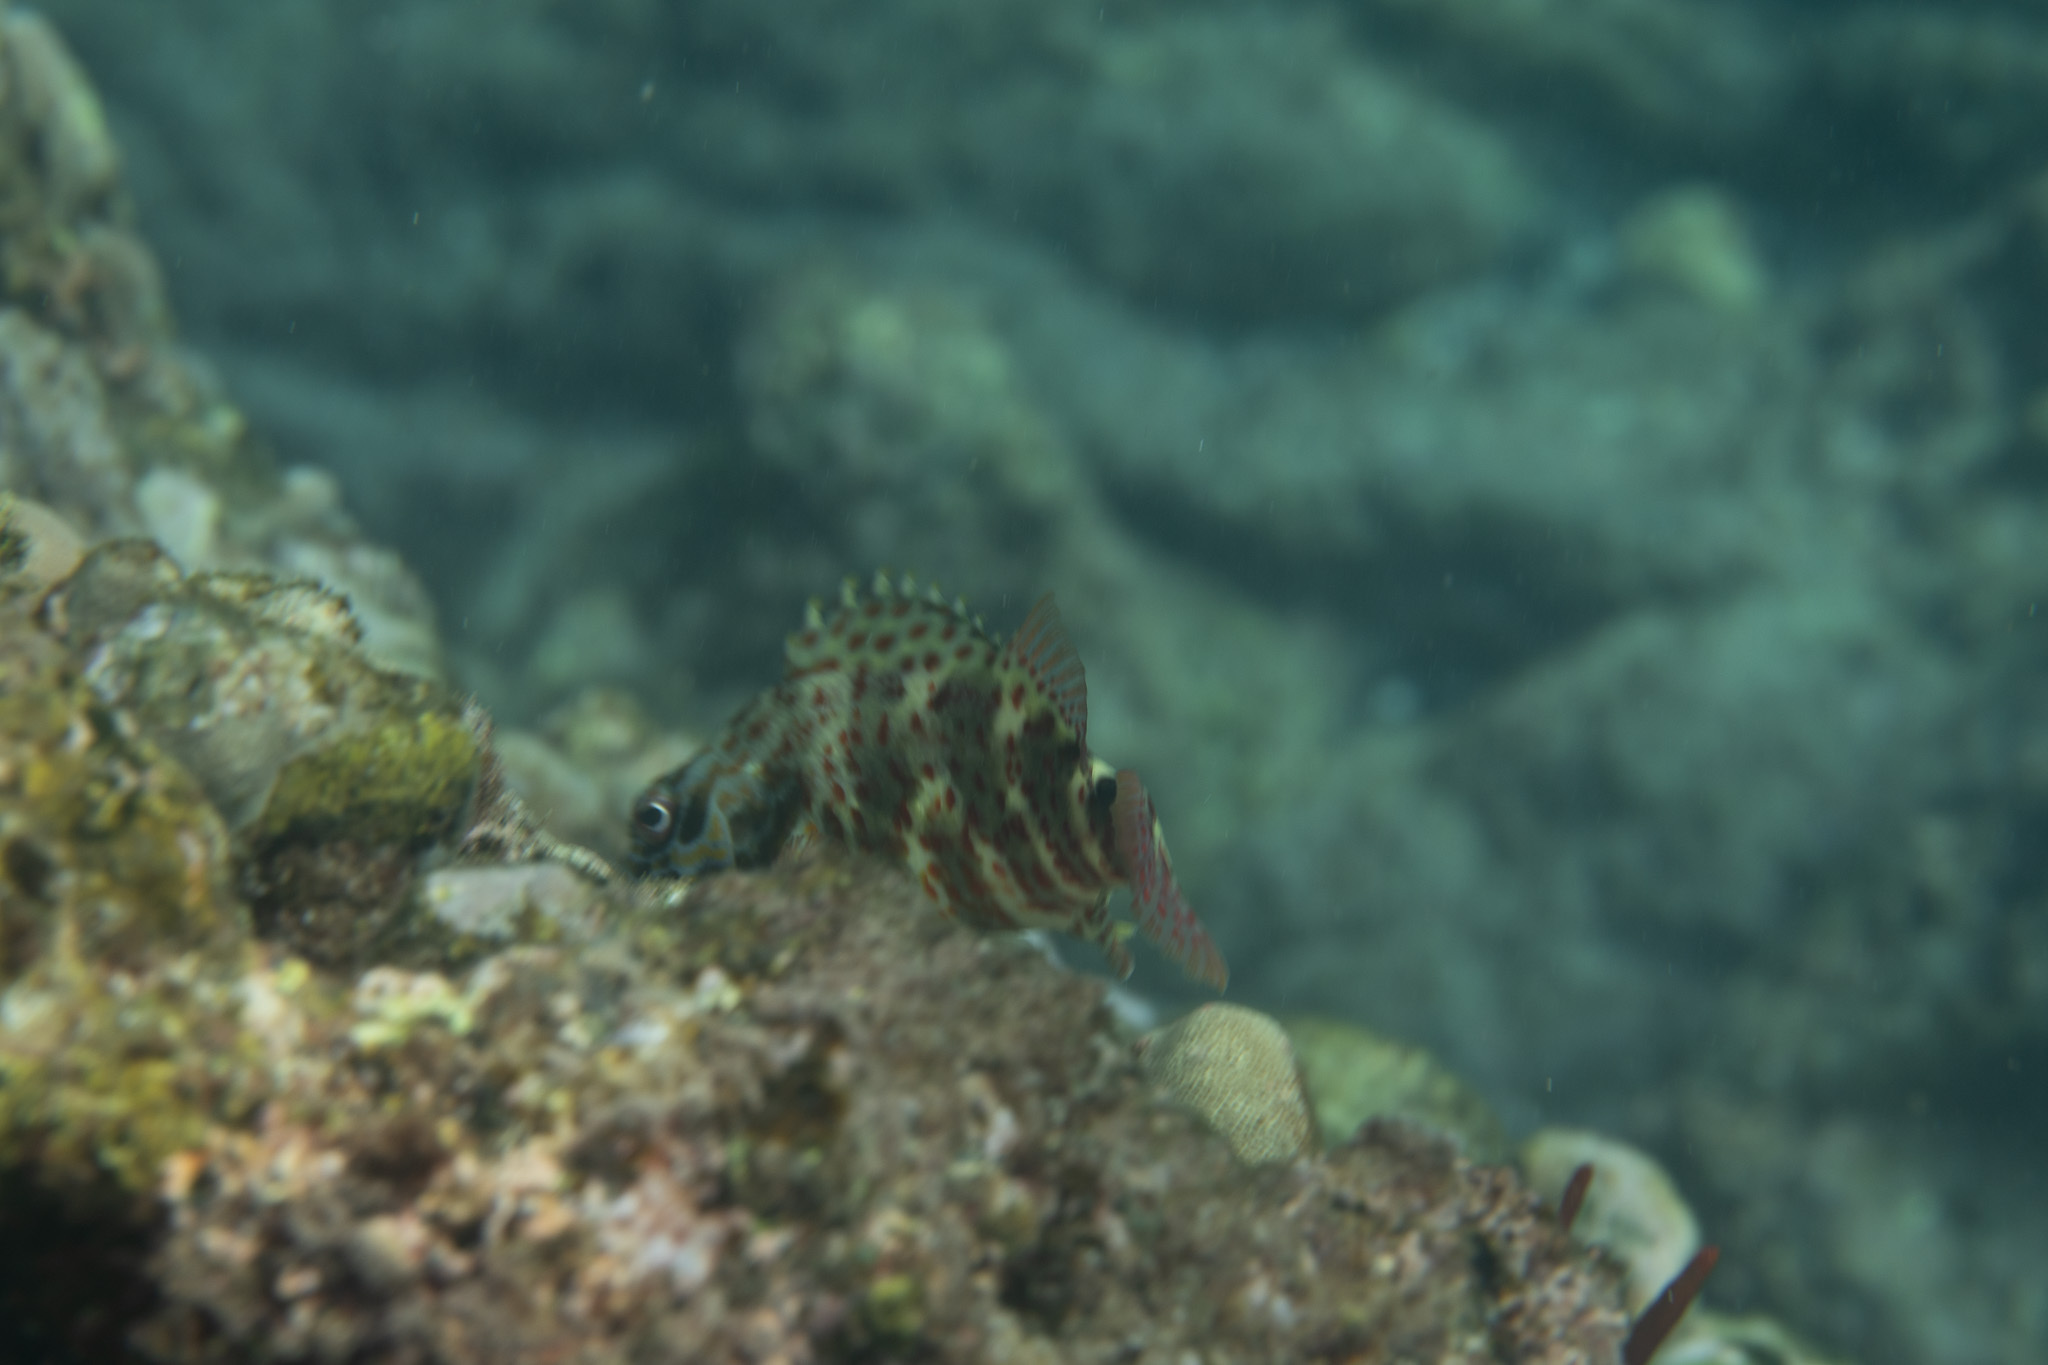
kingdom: Animalia
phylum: Chordata
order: Perciformes
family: Cirrhitidae
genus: Cirrhitus
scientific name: Cirrhitus pinnulatus
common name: Stocky hawkfish
